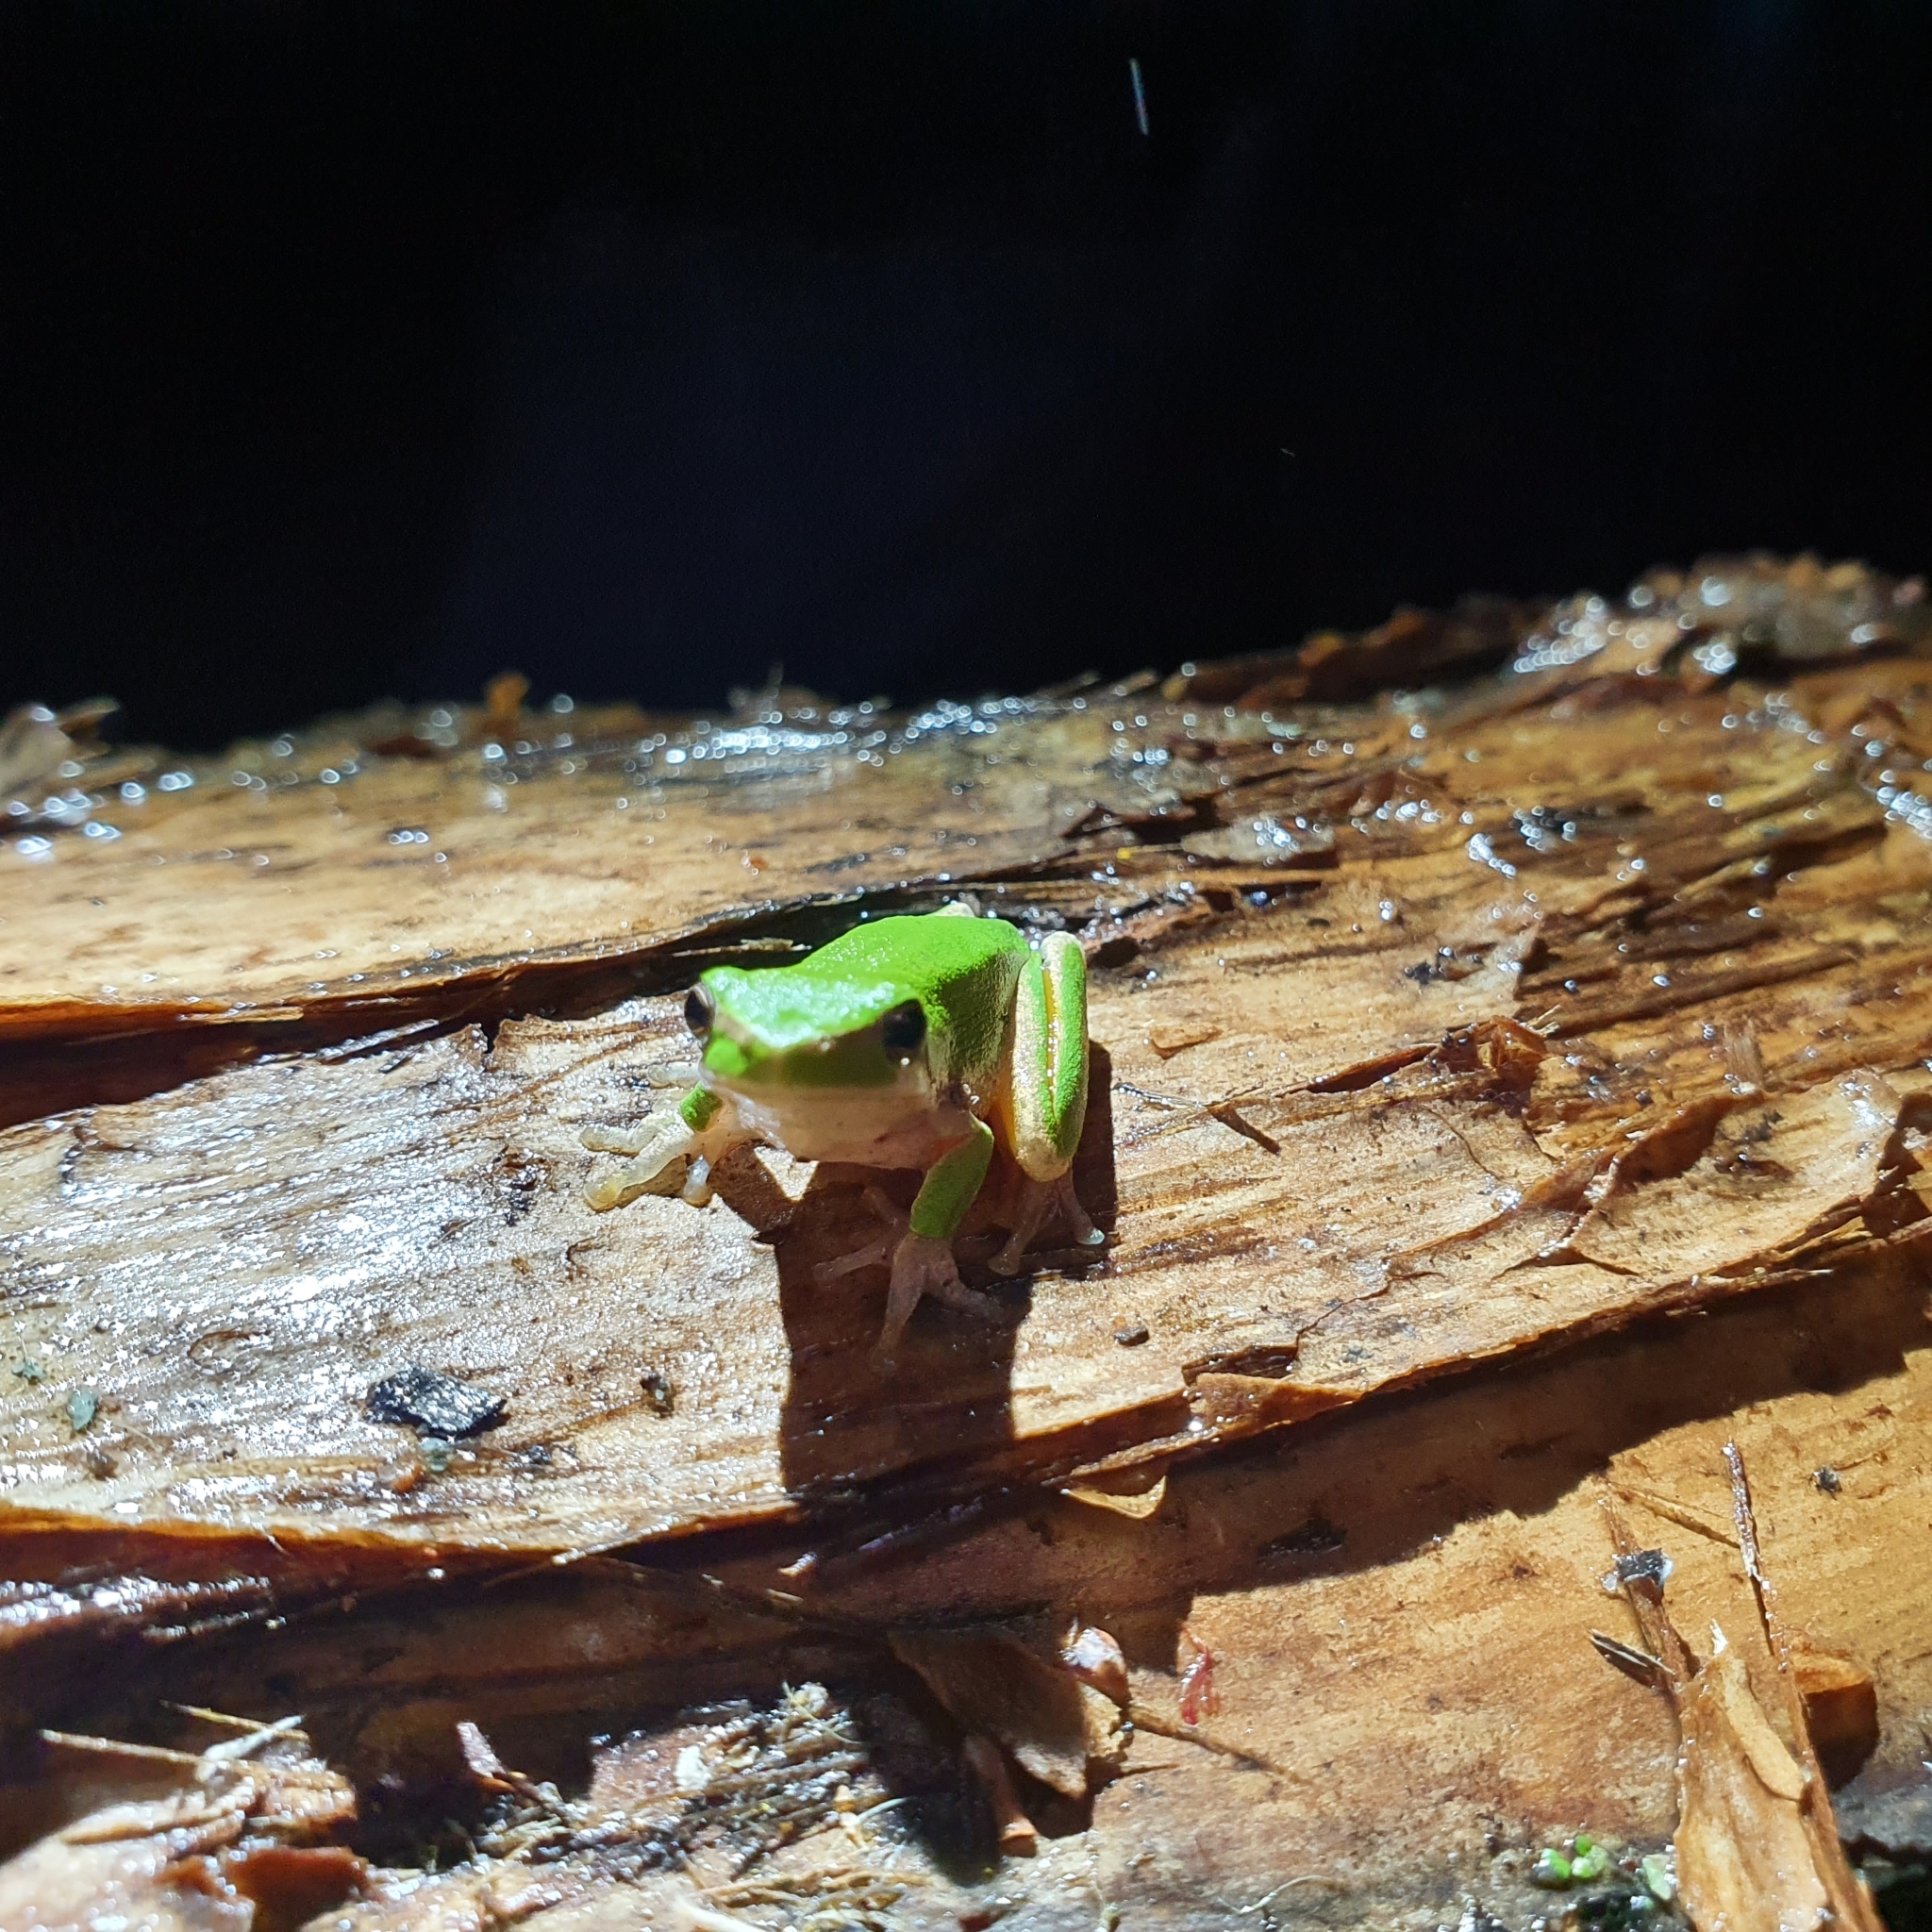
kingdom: Animalia
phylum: Chordata
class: Amphibia
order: Anura
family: Pelodryadidae
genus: Litoria
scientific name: Litoria fallax
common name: Eastern dwarf treefrog
